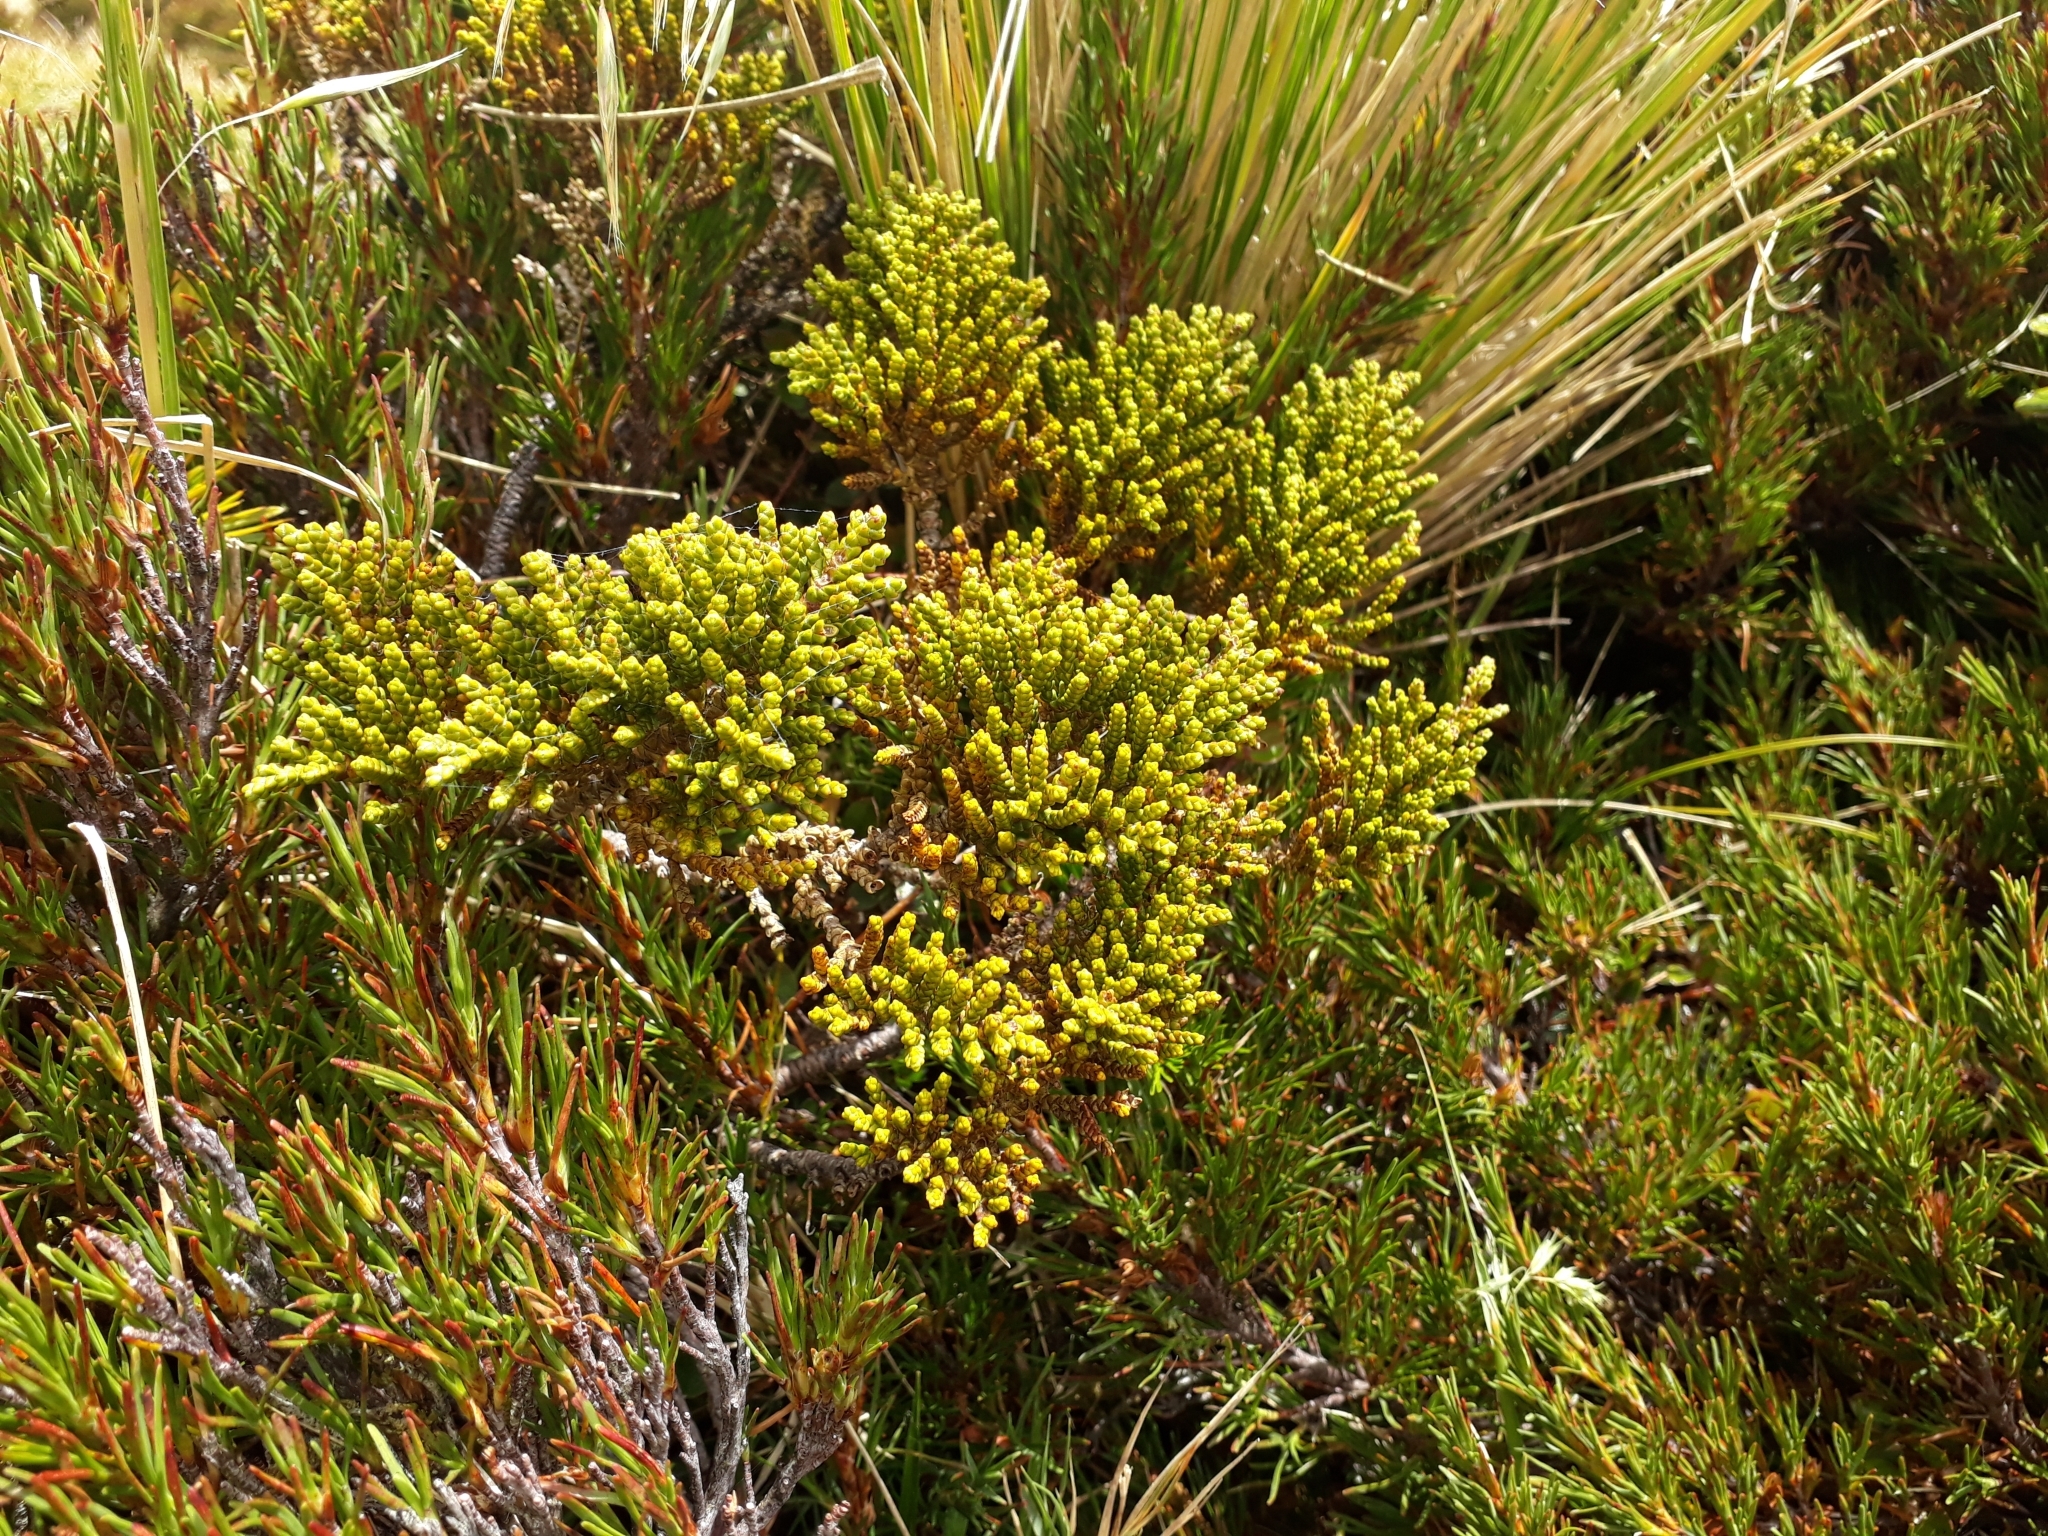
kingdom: Plantae
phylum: Tracheophyta
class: Magnoliopsida
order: Lamiales
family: Plantaginaceae
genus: Veronica
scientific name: Veronica tetragona
